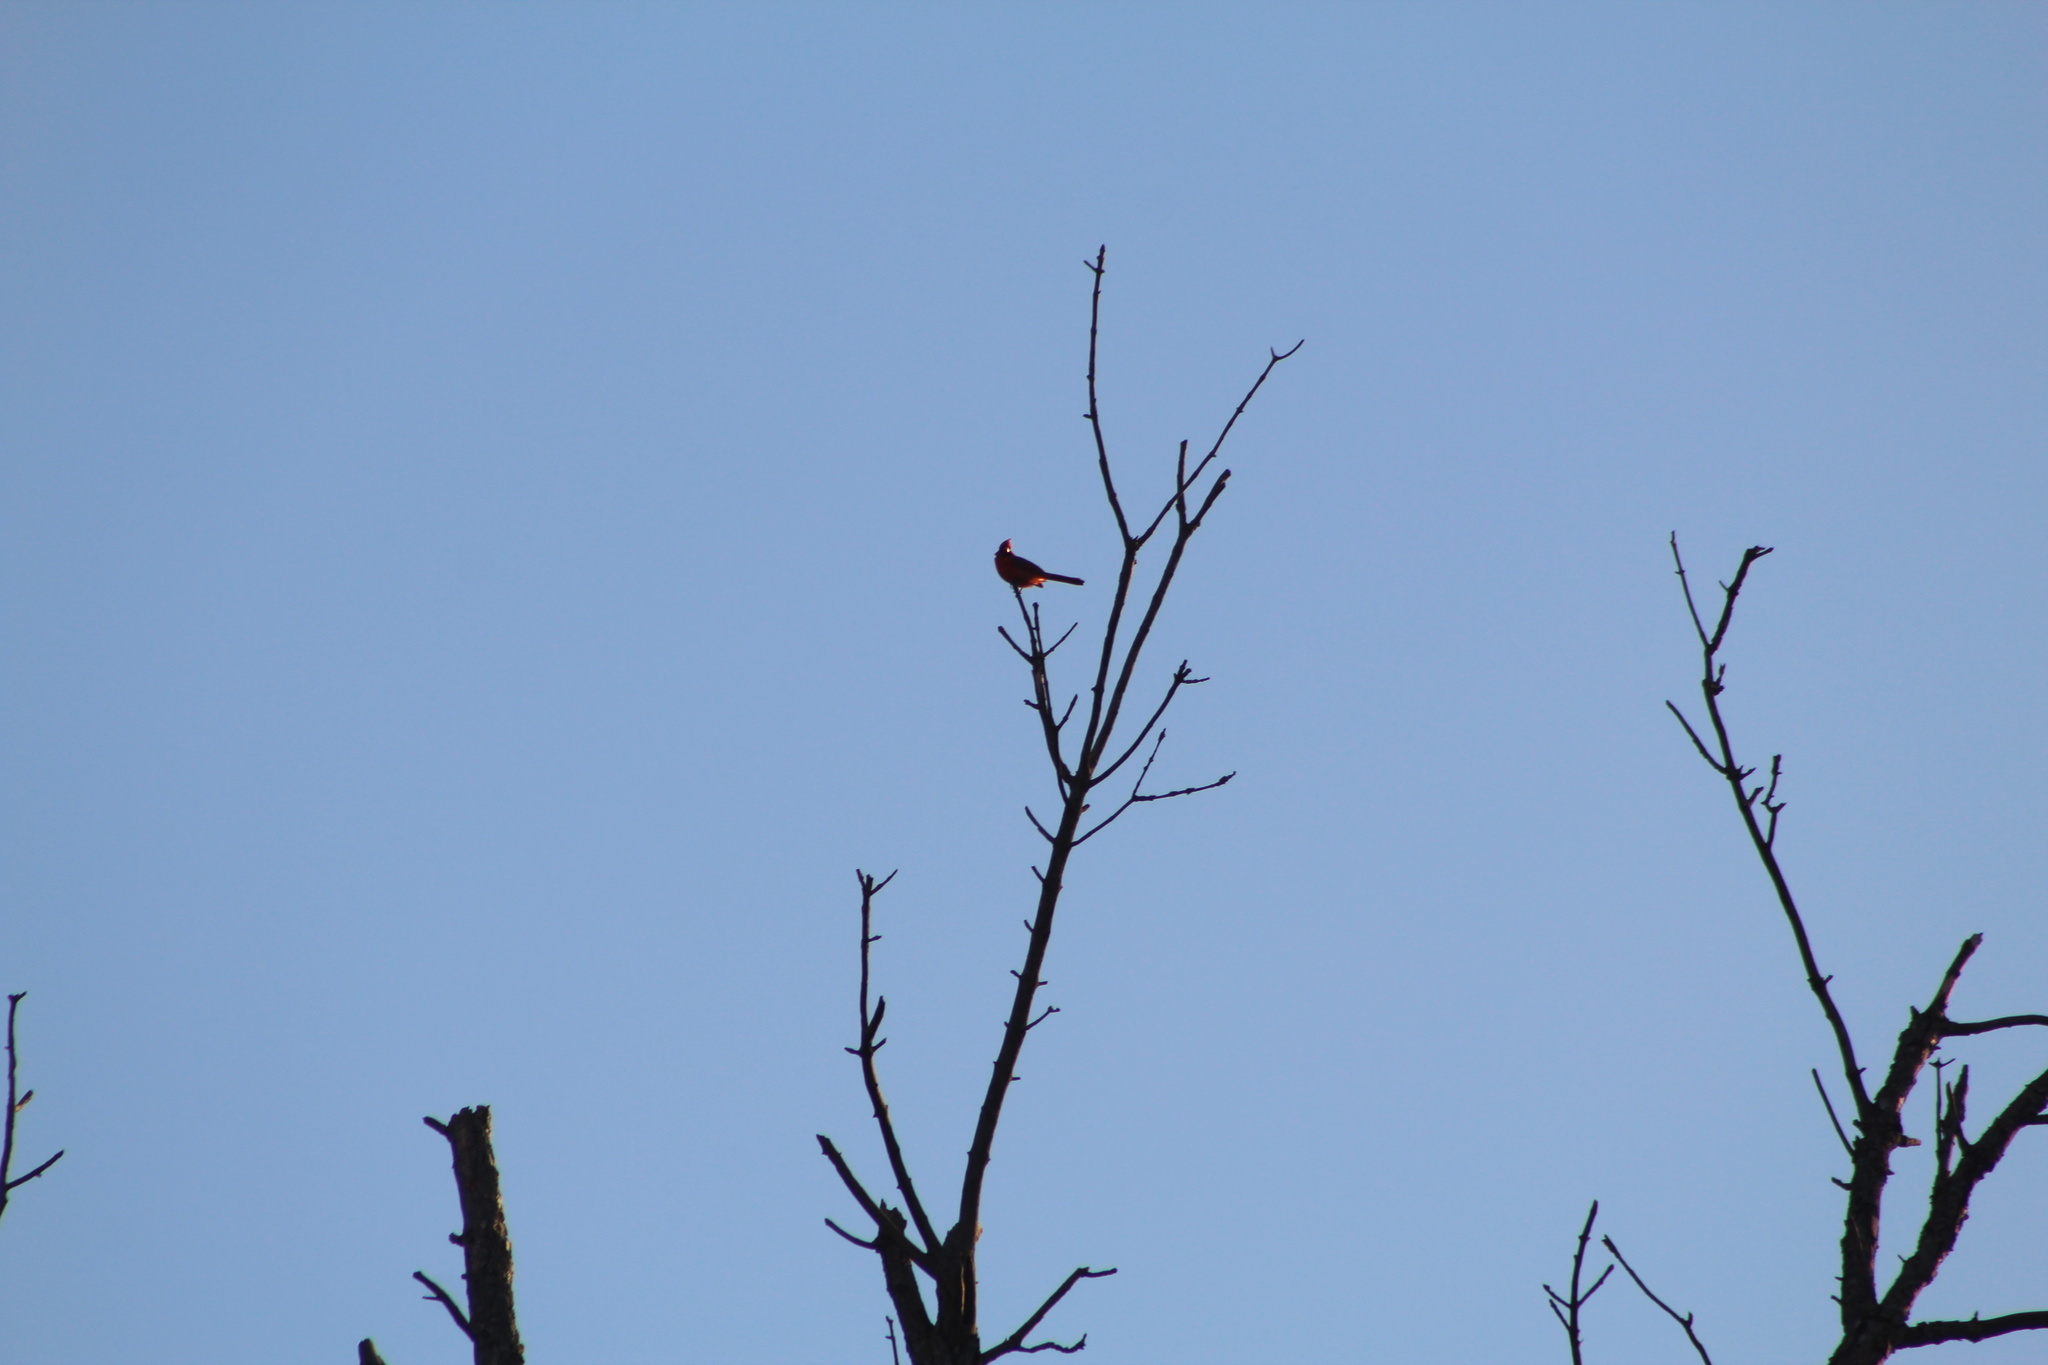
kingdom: Animalia
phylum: Chordata
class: Aves
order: Passeriformes
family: Cardinalidae
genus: Cardinalis
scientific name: Cardinalis cardinalis
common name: Northern cardinal
